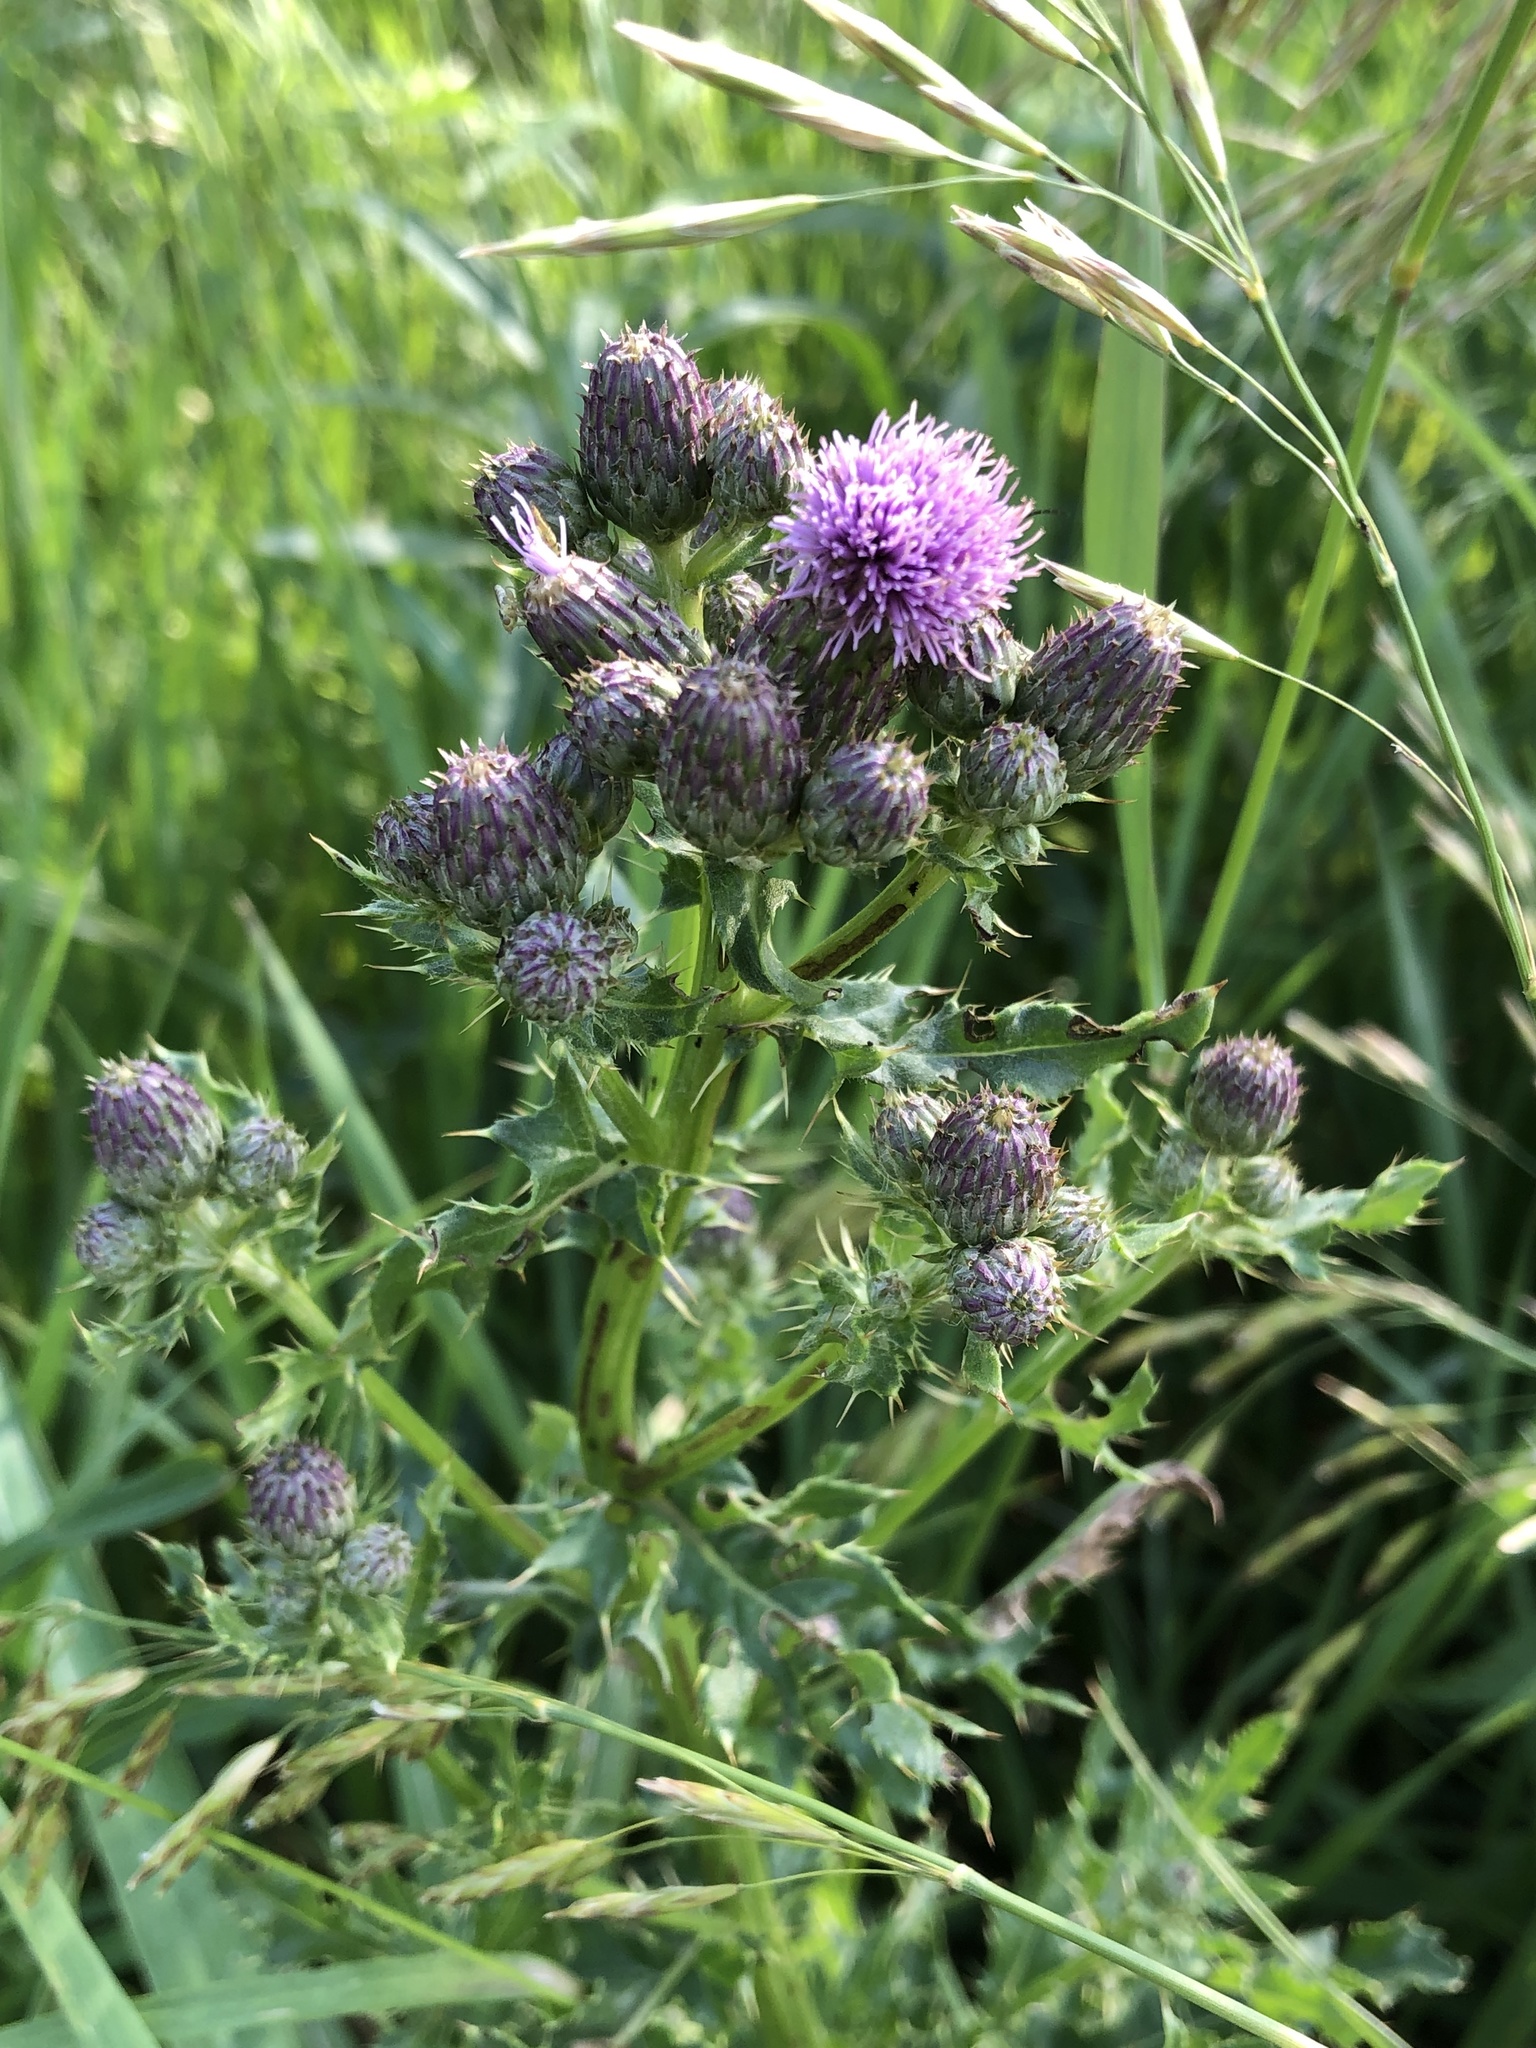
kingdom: Plantae
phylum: Tracheophyta
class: Magnoliopsida
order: Asterales
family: Asteraceae
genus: Cirsium
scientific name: Cirsium arvense
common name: Creeping thistle
